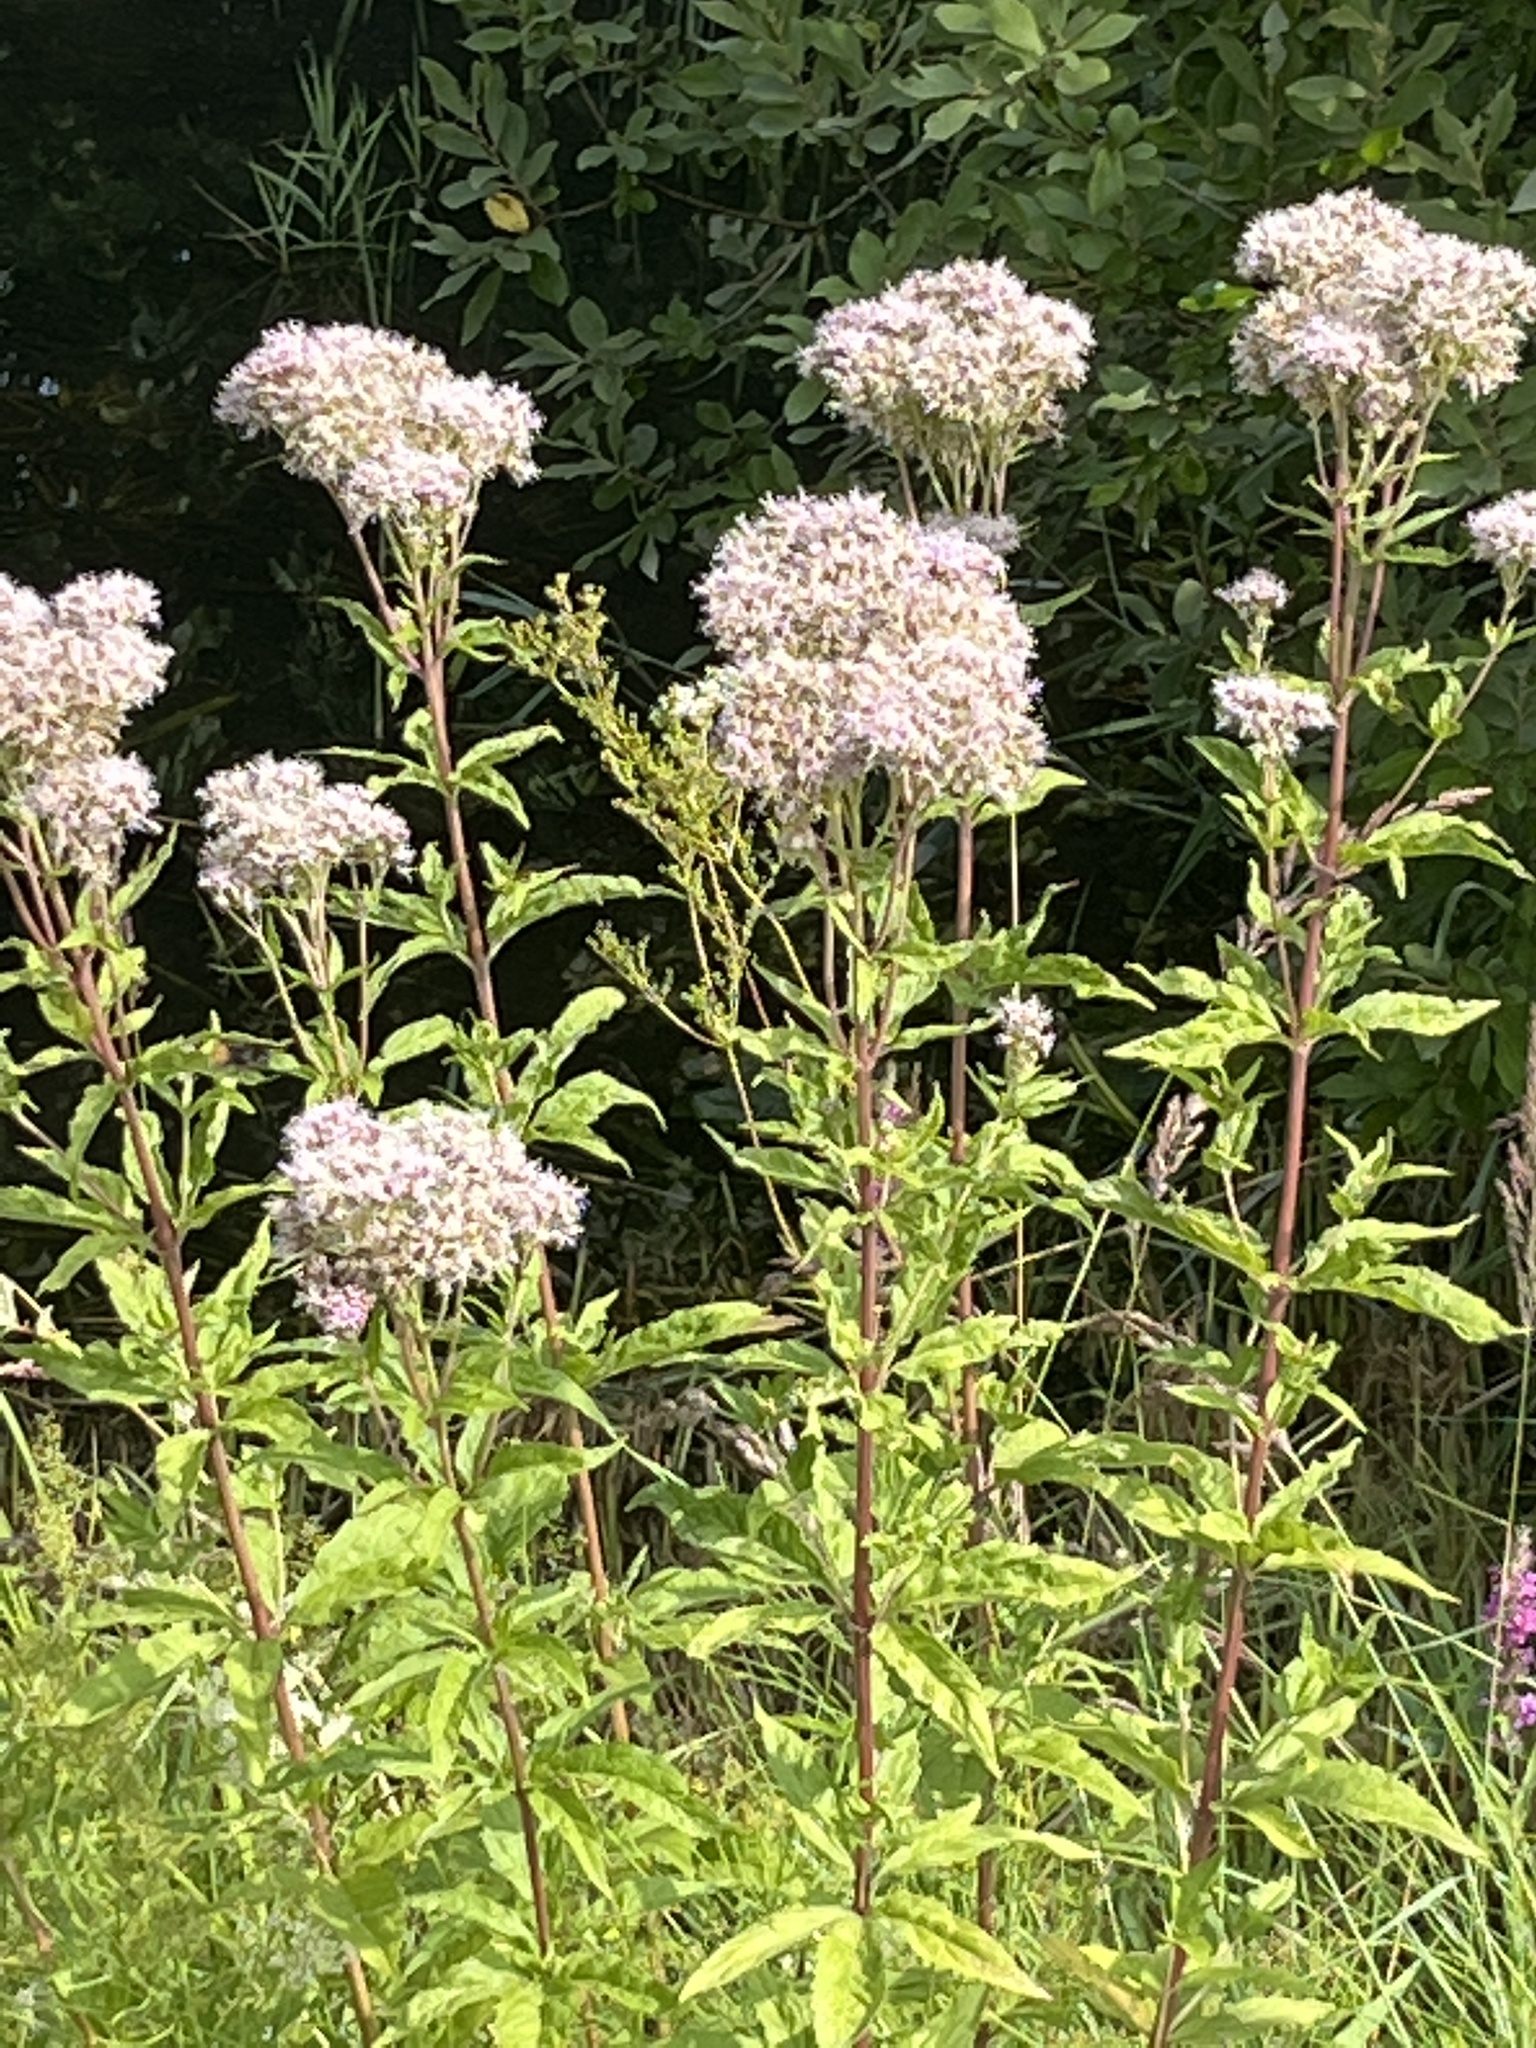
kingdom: Plantae
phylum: Tracheophyta
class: Magnoliopsida
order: Asterales
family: Asteraceae
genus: Eupatorium
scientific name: Eupatorium cannabinum
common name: Hemp-agrimony
